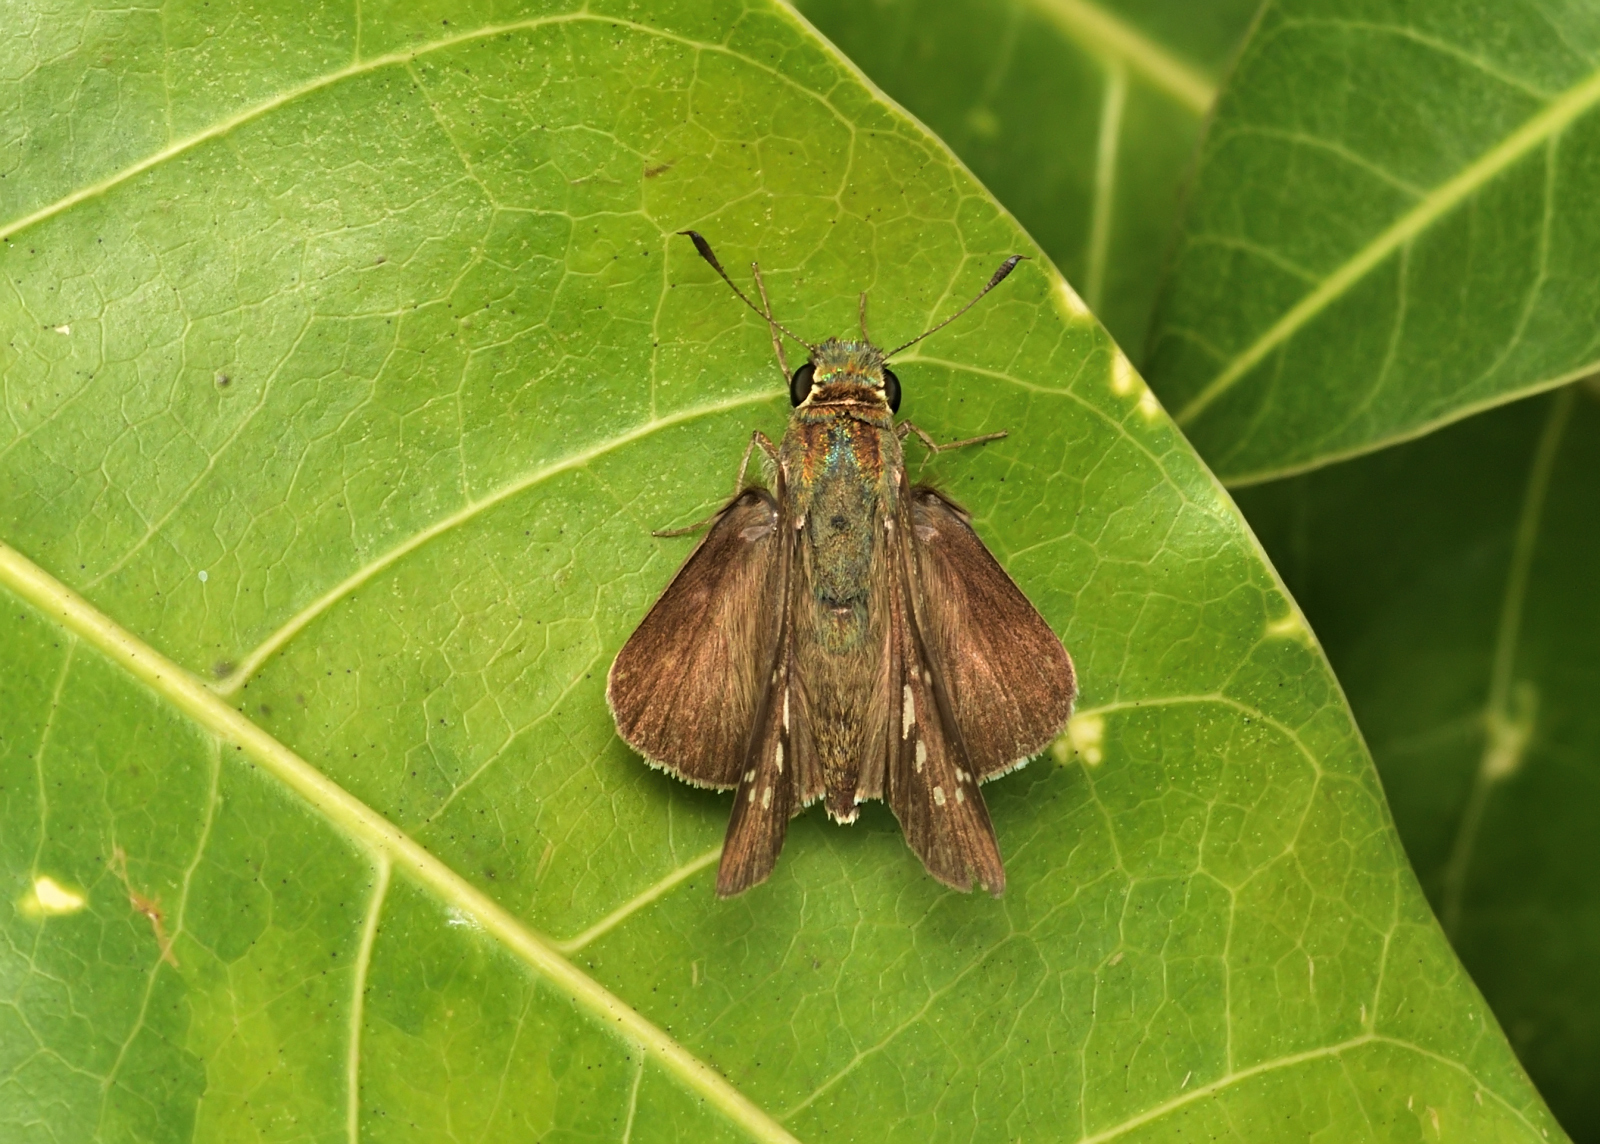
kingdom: Animalia
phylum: Arthropoda
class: Insecta
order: Lepidoptera
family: Hesperiidae
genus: Pelopidas
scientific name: Pelopidas mathias
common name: Black-branded swift
